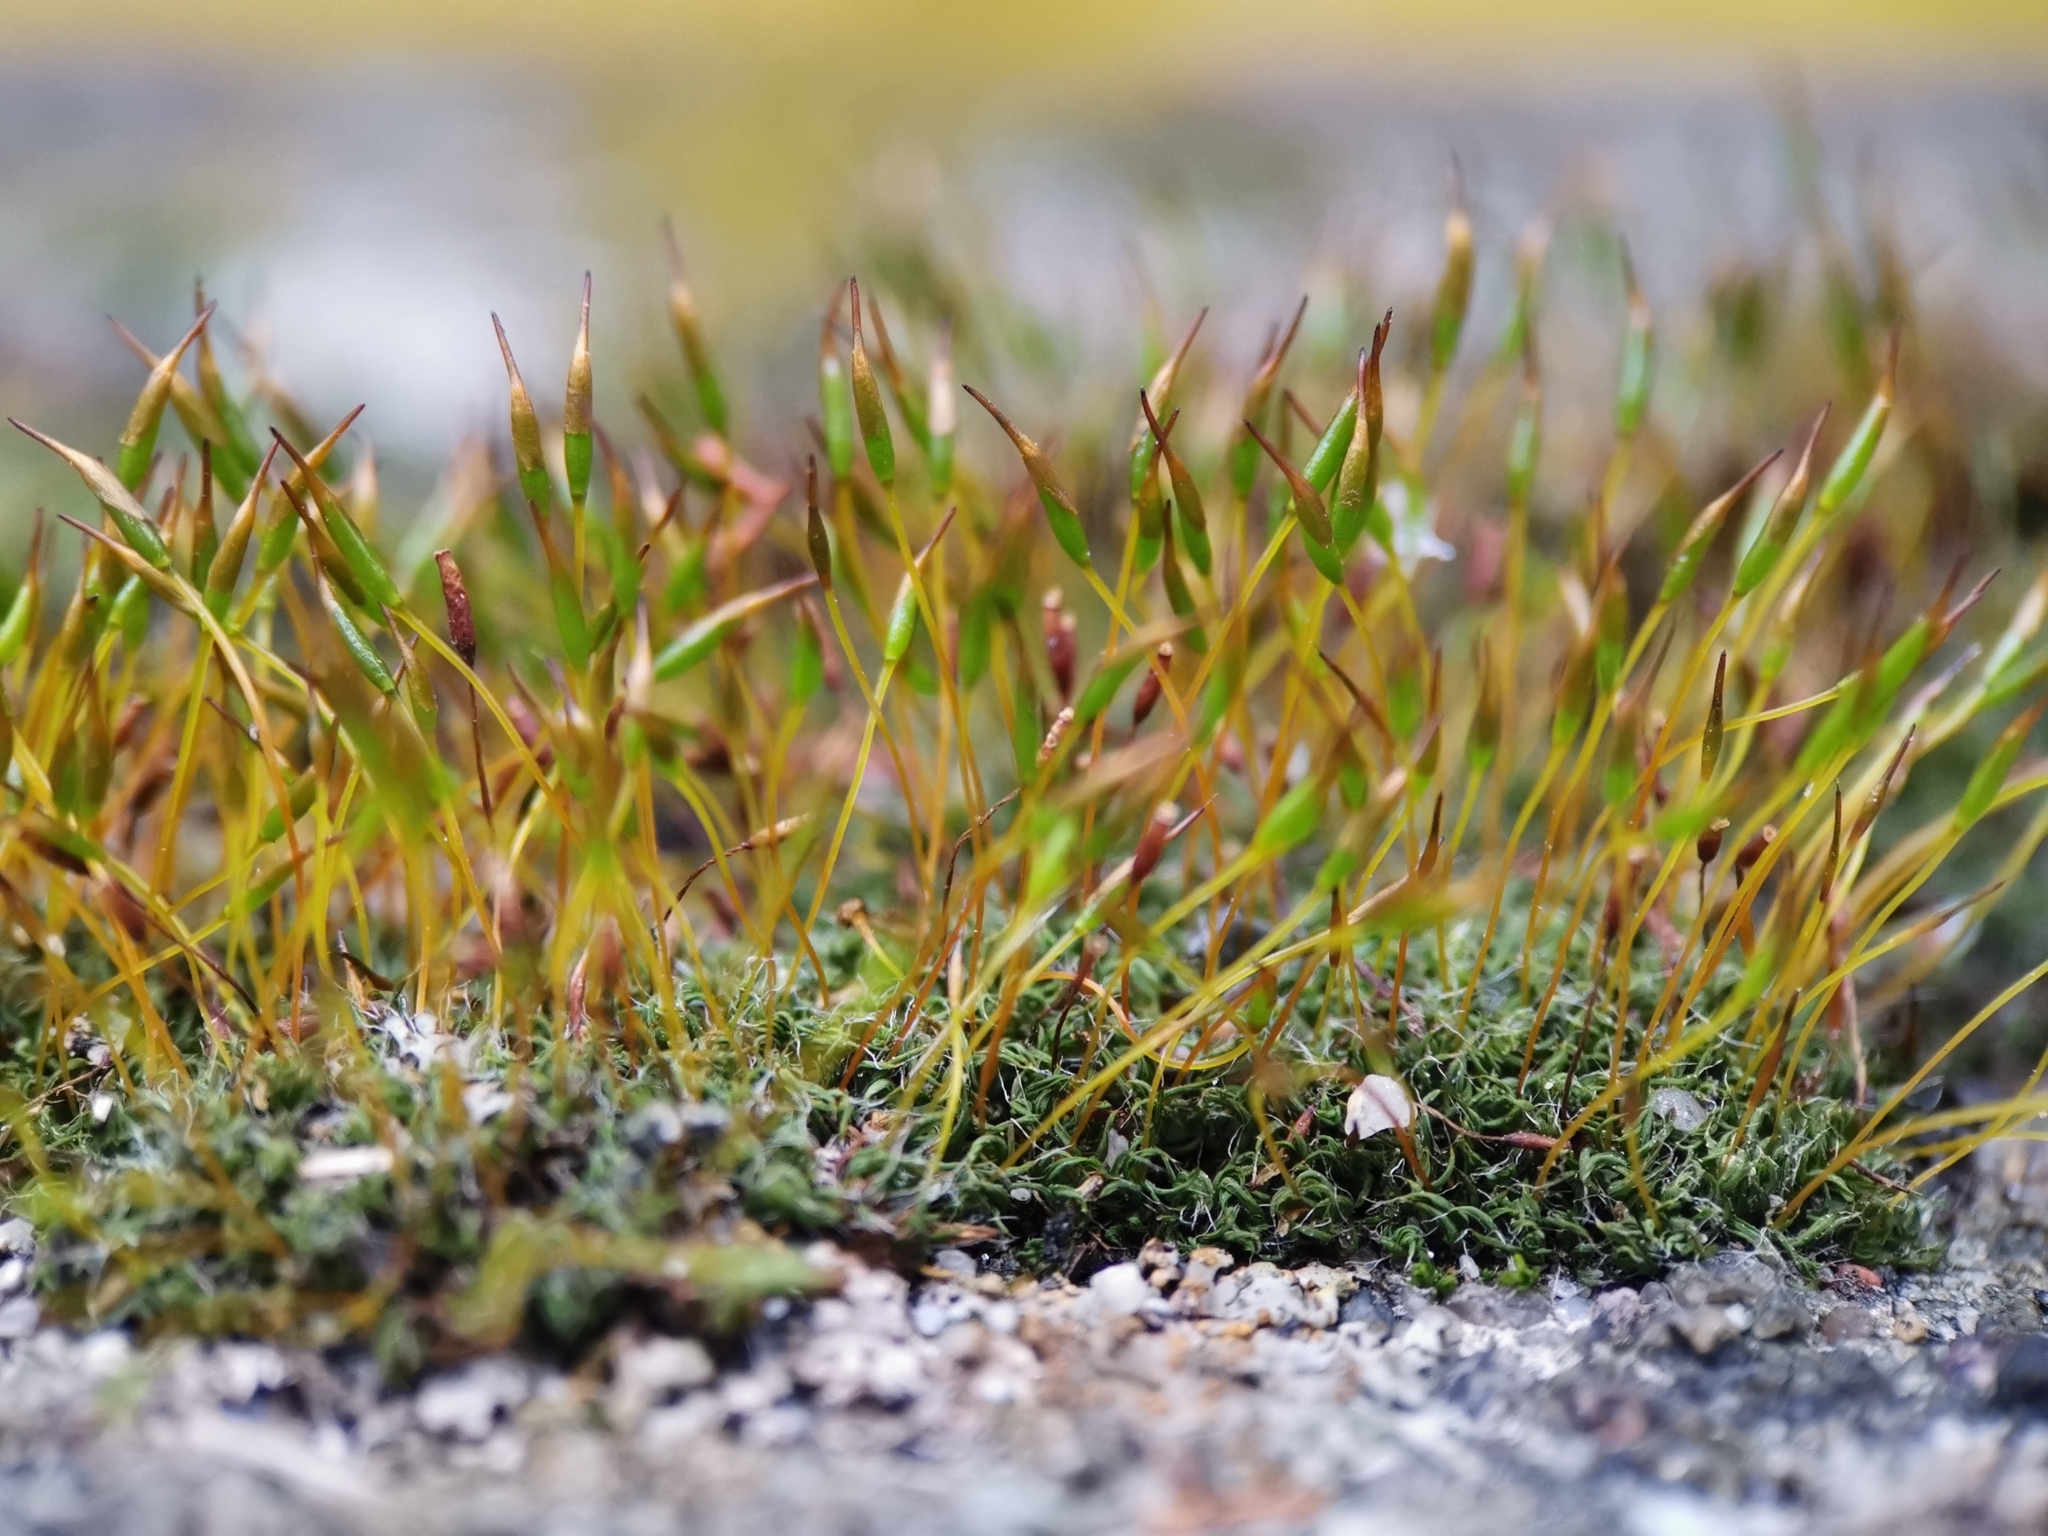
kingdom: Plantae
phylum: Bryophyta
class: Bryopsida
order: Pottiales
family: Pottiaceae
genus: Tortula
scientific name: Tortula muralis
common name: Wall screw-moss
